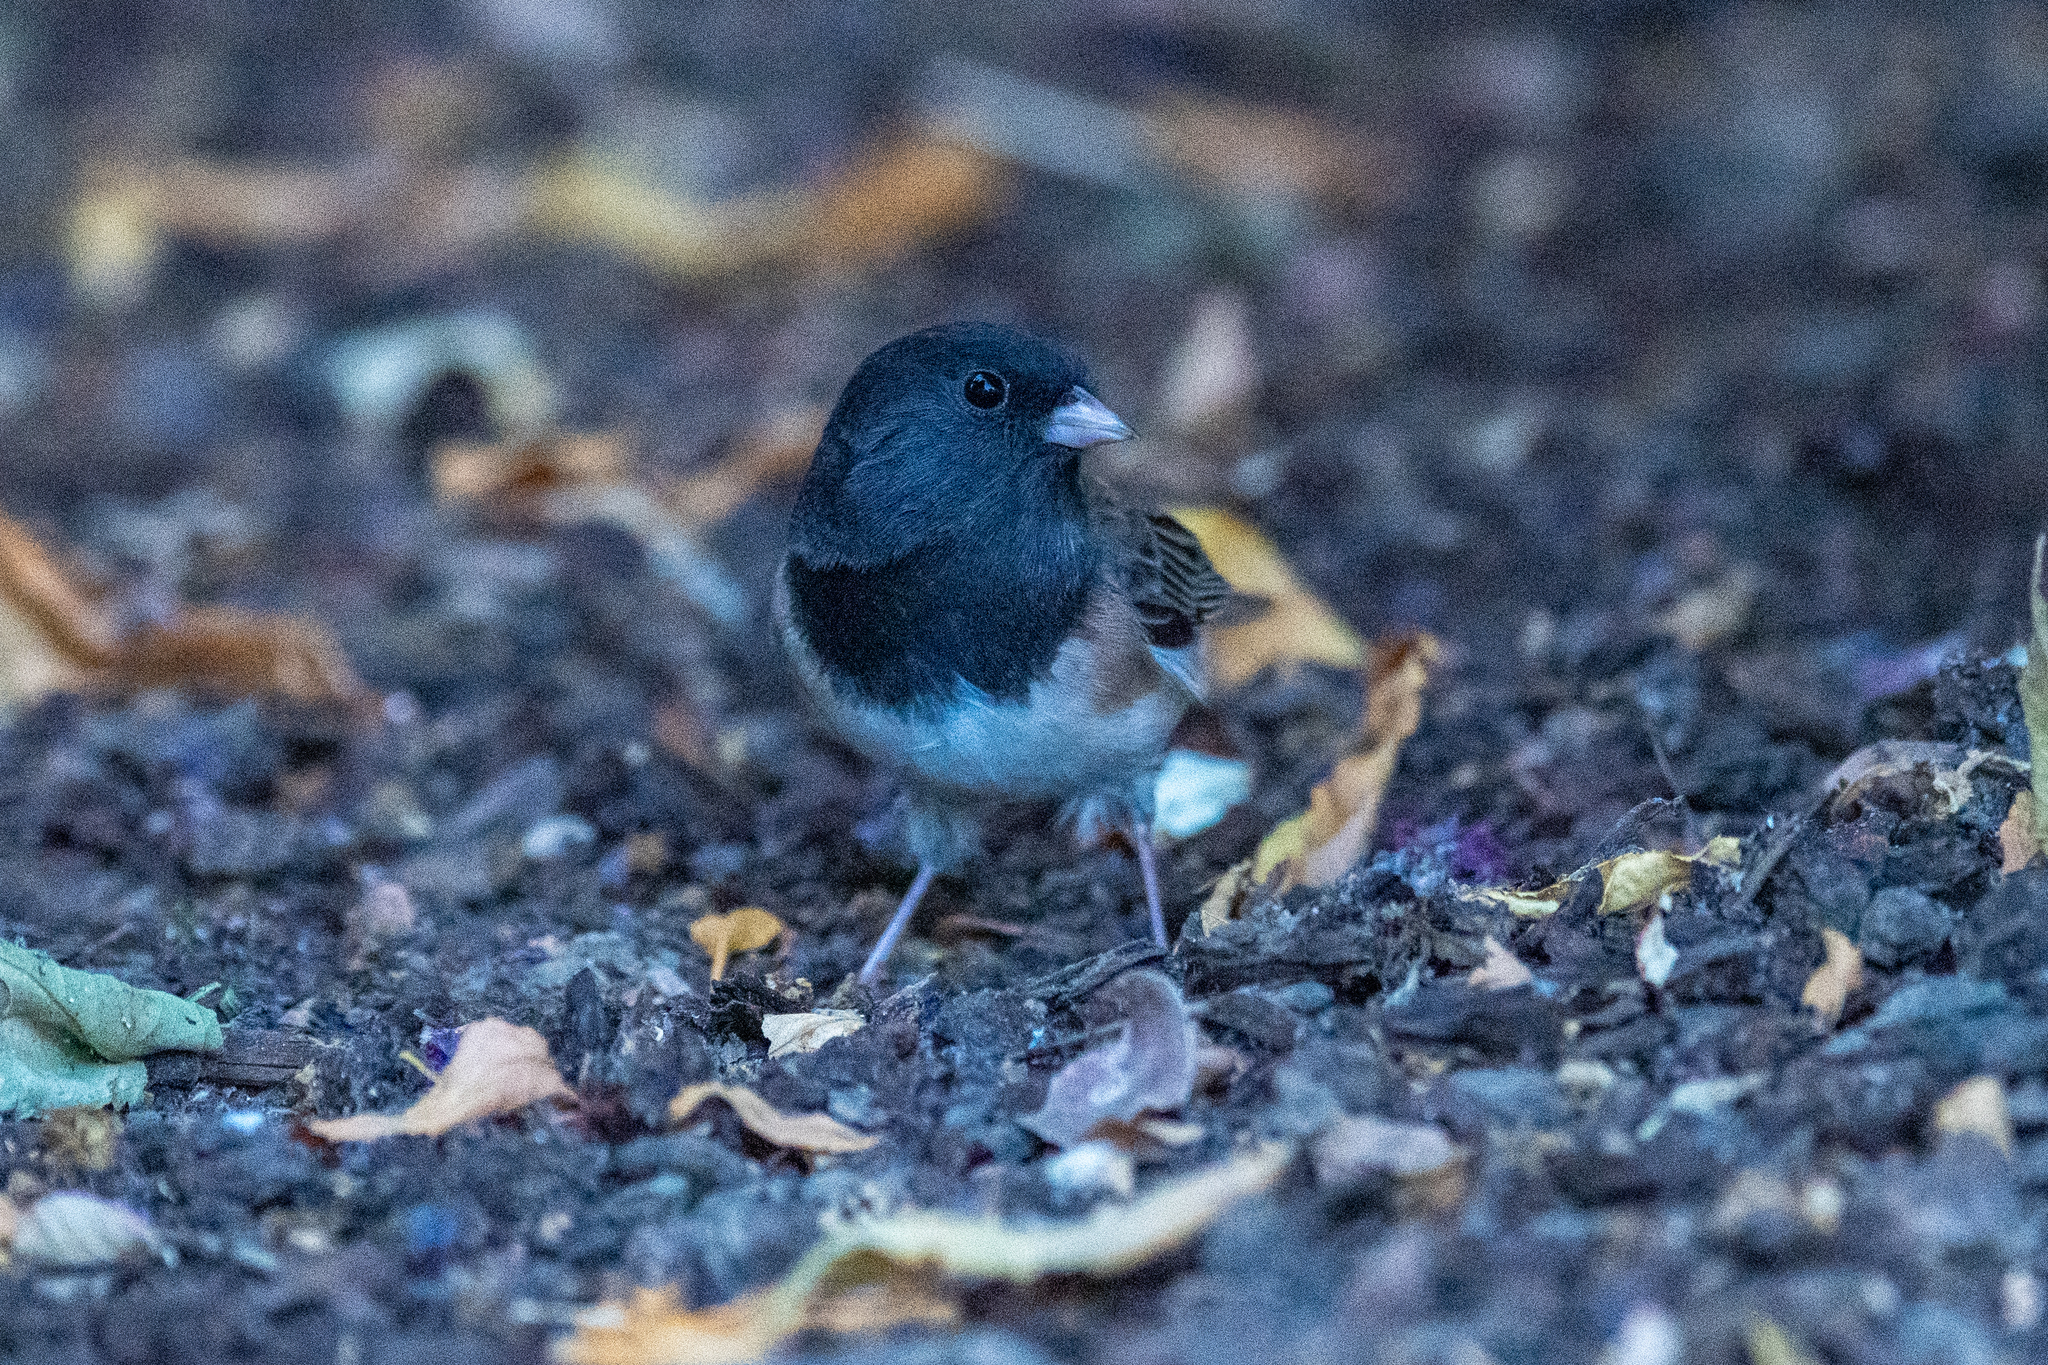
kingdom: Animalia
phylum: Chordata
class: Aves
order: Passeriformes
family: Passerellidae
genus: Junco
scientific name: Junco hyemalis
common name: Dark-eyed junco
